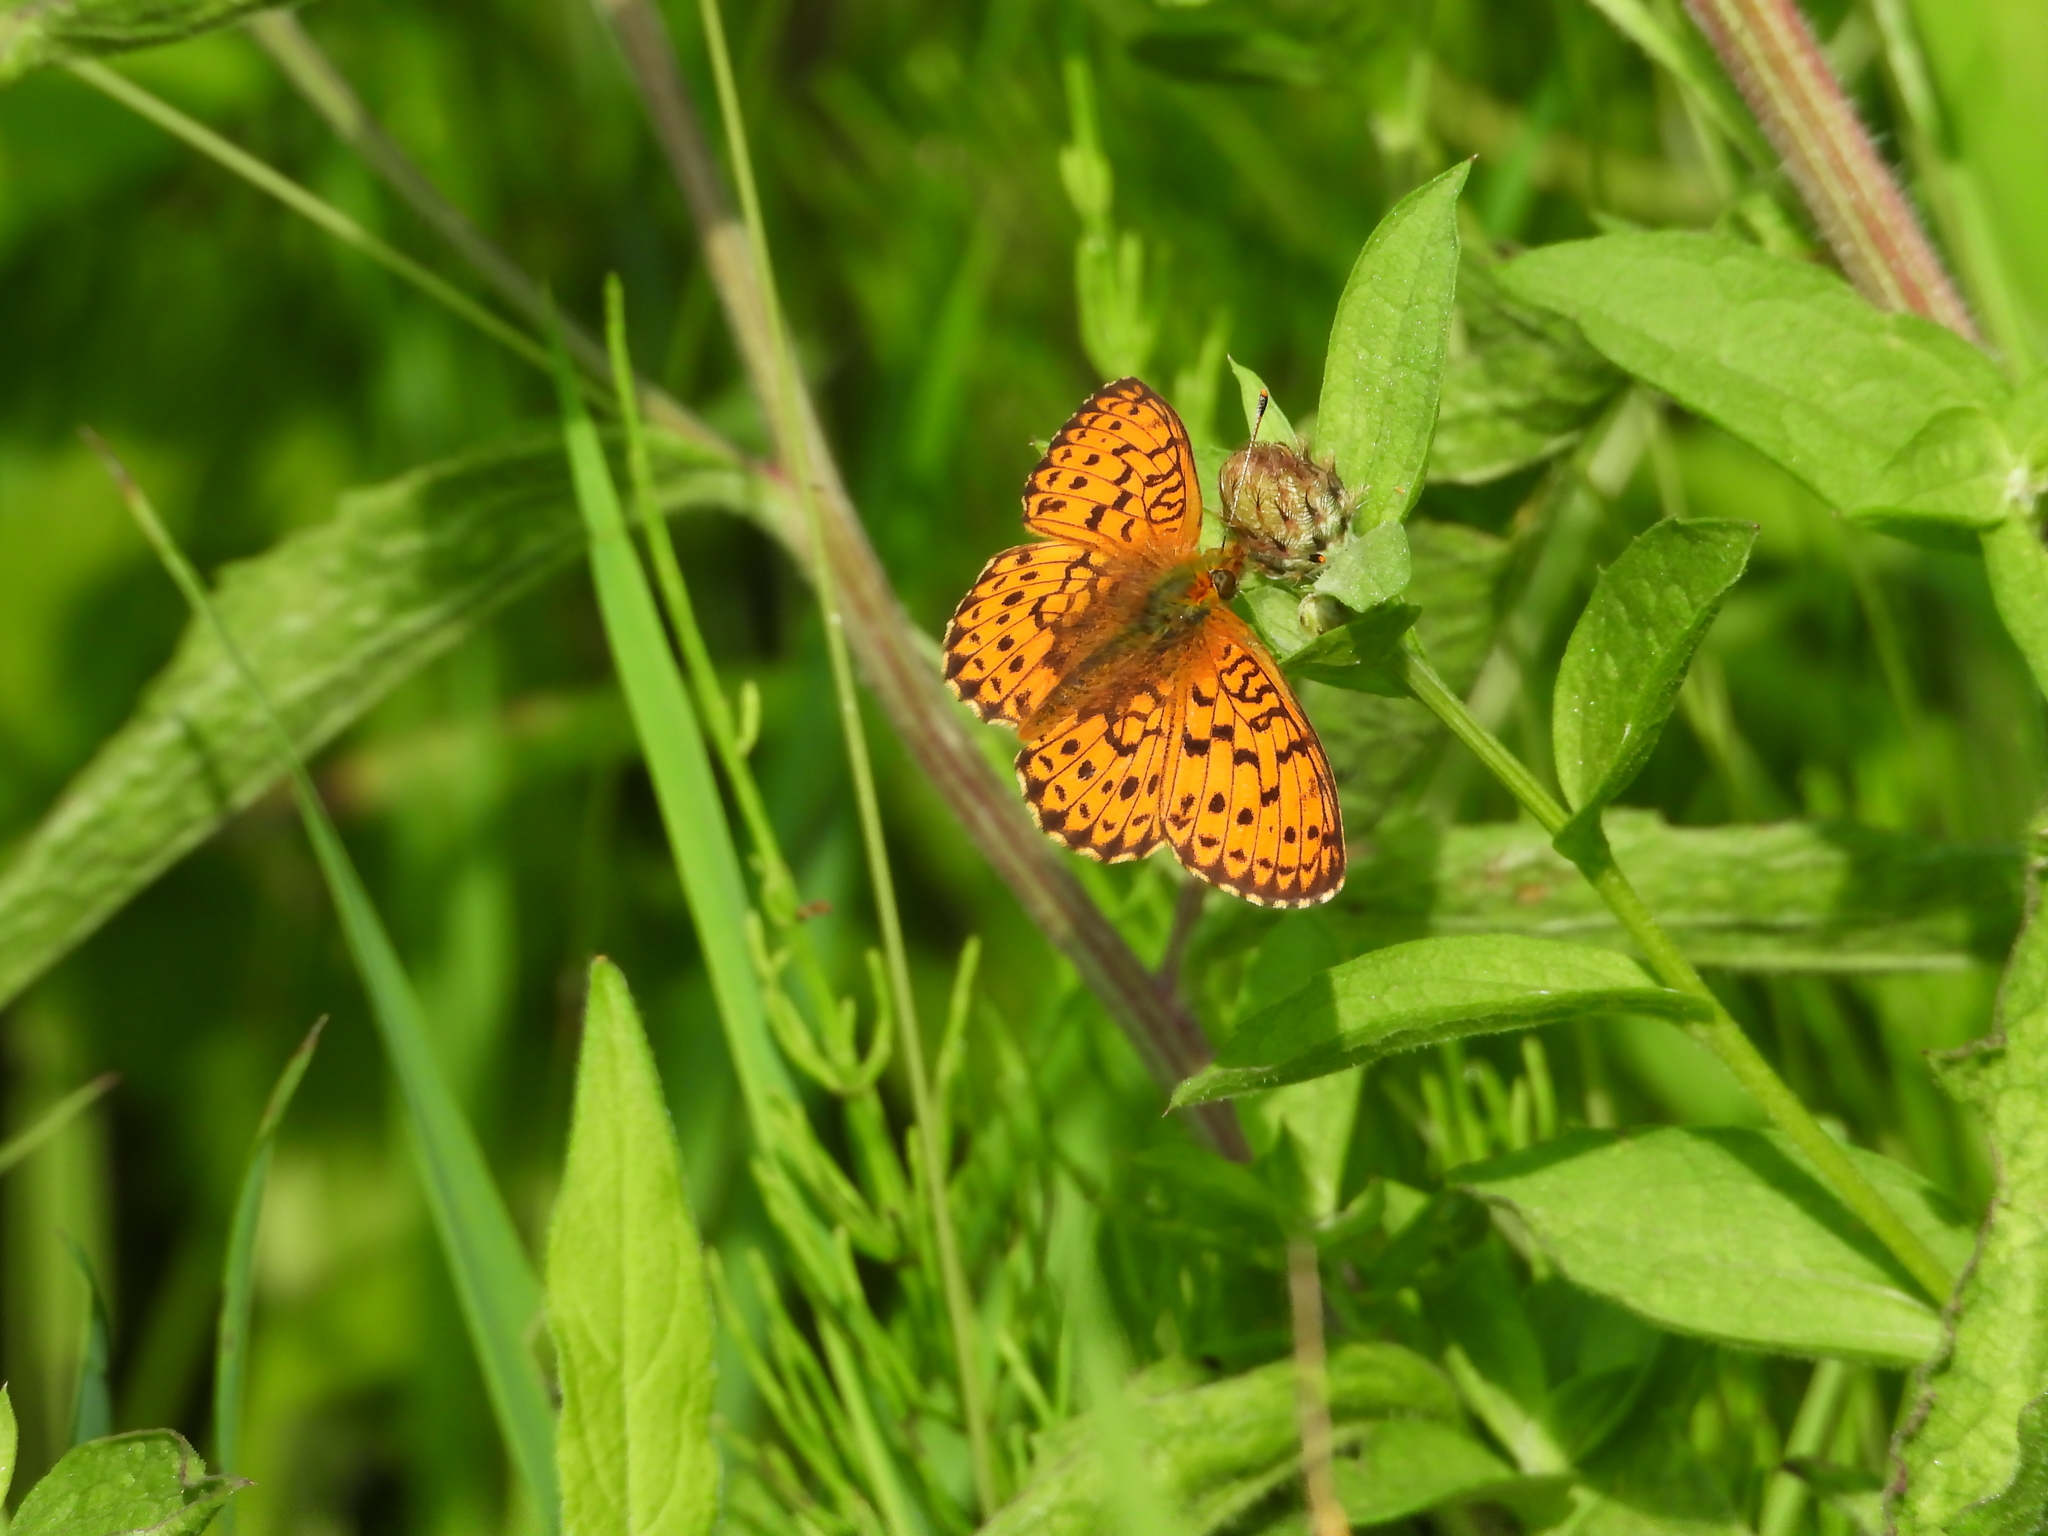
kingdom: Animalia
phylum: Arthropoda
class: Insecta
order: Lepidoptera
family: Nymphalidae
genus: Brenthis
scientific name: Brenthis ino
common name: Lesser marbled fritillary
